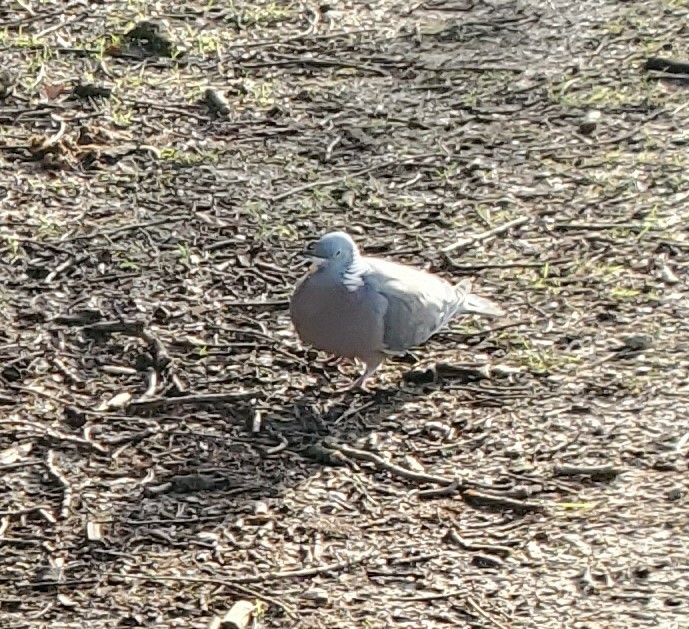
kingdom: Animalia
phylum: Chordata
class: Aves
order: Columbiformes
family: Columbidae
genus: Columba
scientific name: Columba palumbus
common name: Common wood pigeon
